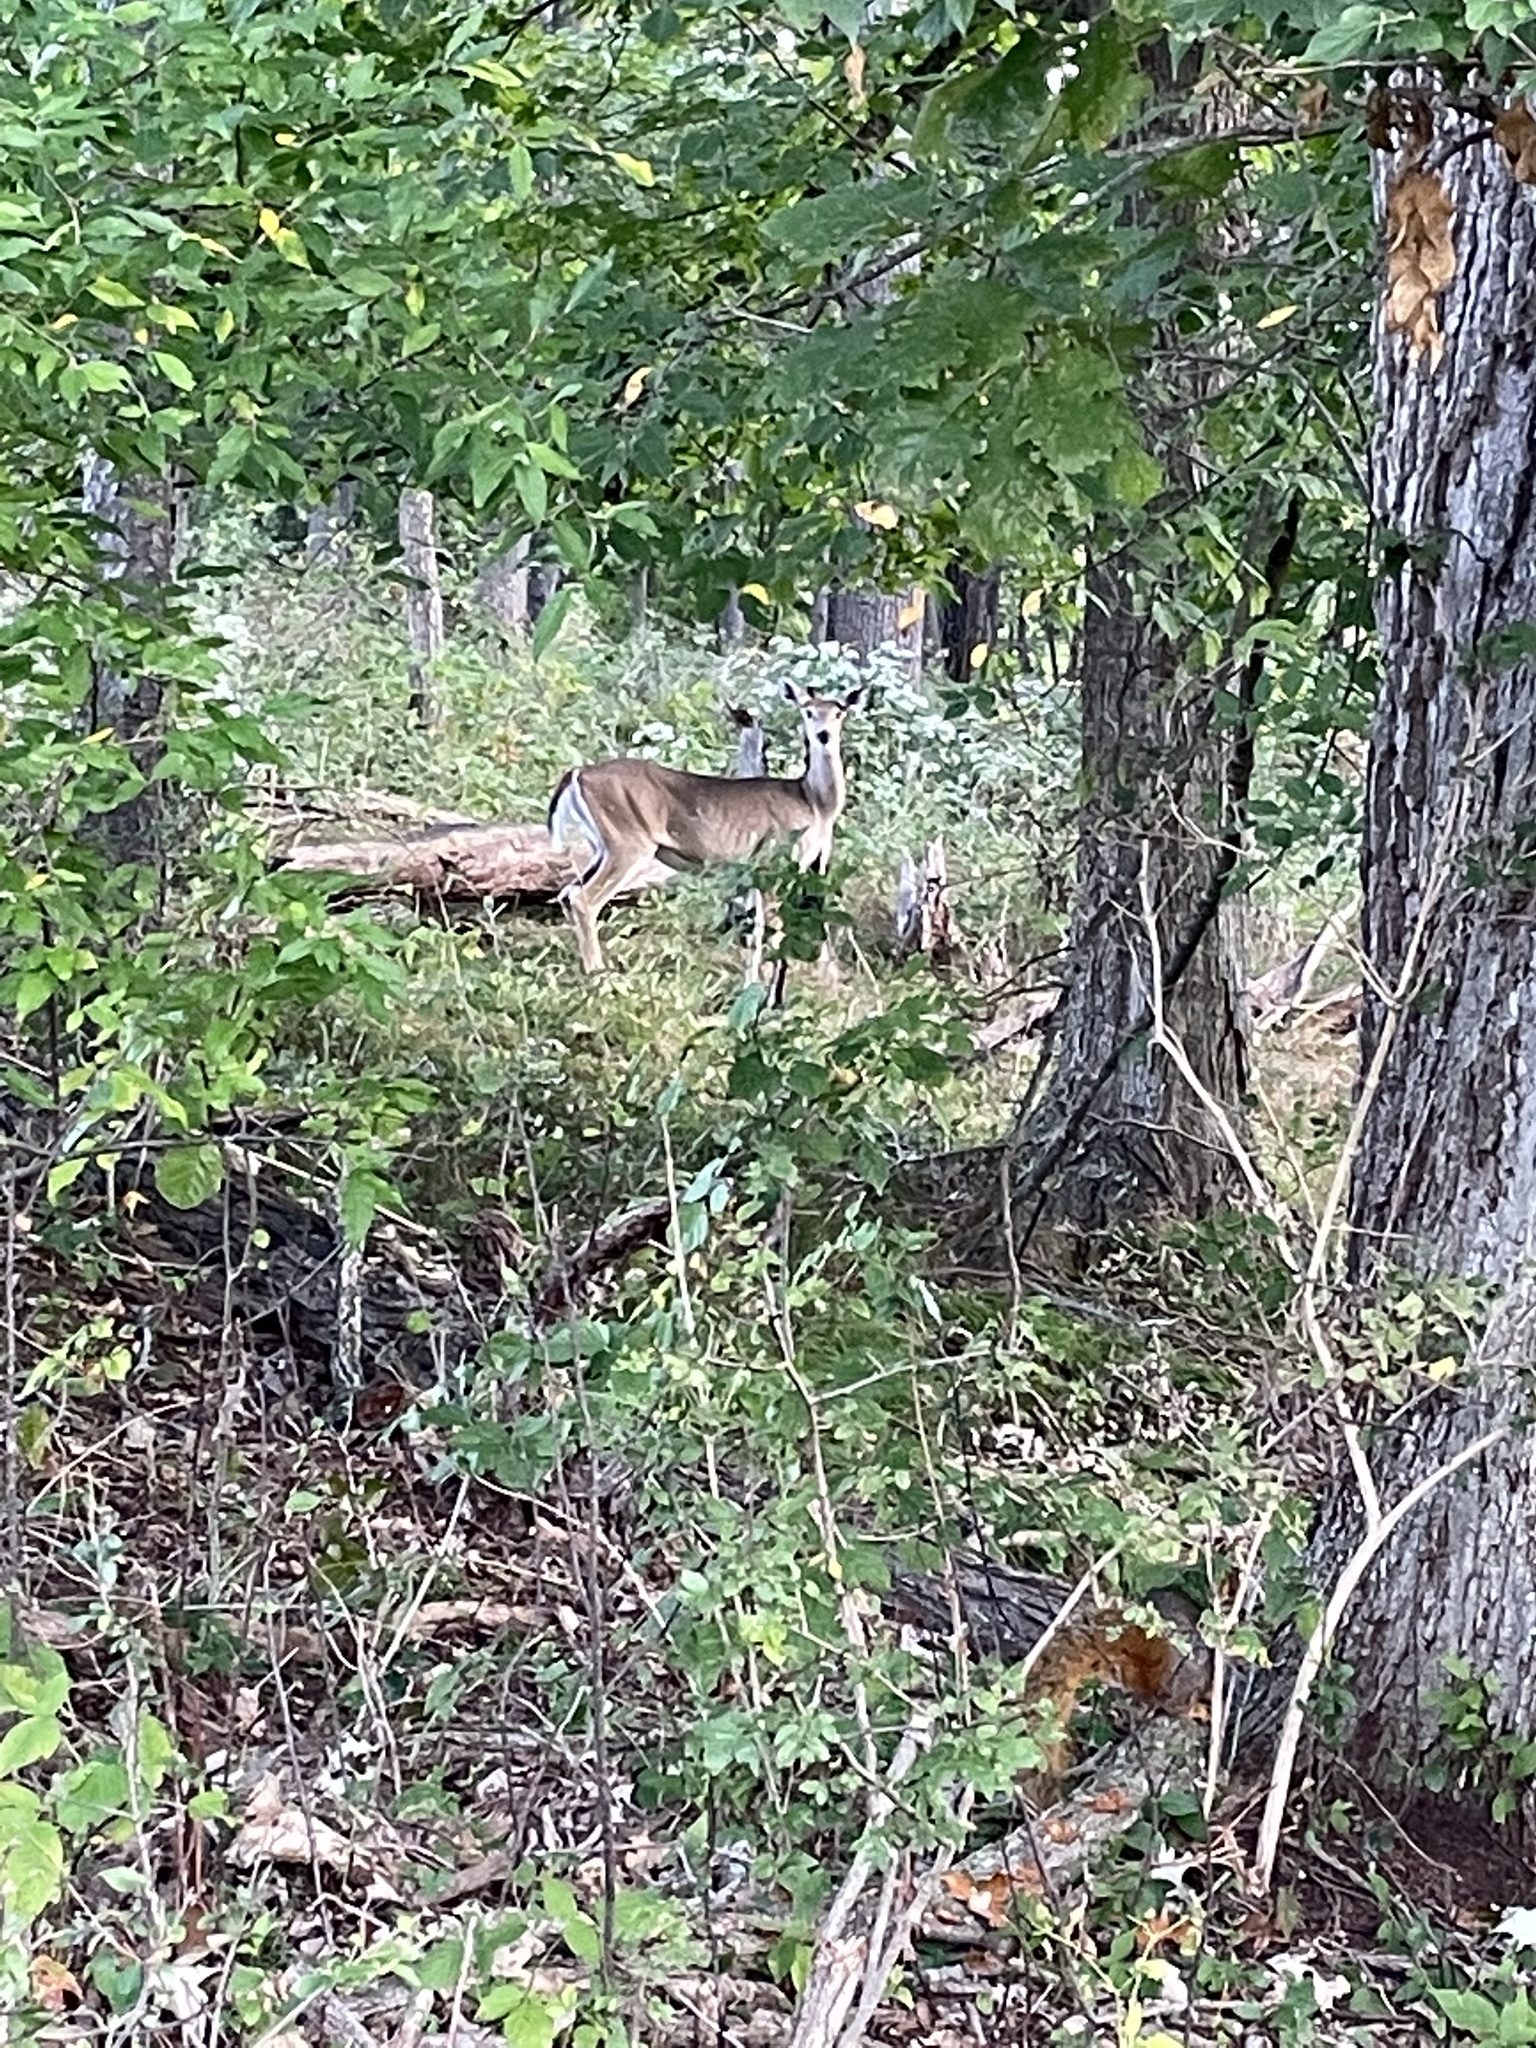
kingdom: Animalia
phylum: Chordata
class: Mammalia
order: Artiodactyla
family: Cervidae
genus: Odocoileus
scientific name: Odocoileus virginianus
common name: White-tailed deer
